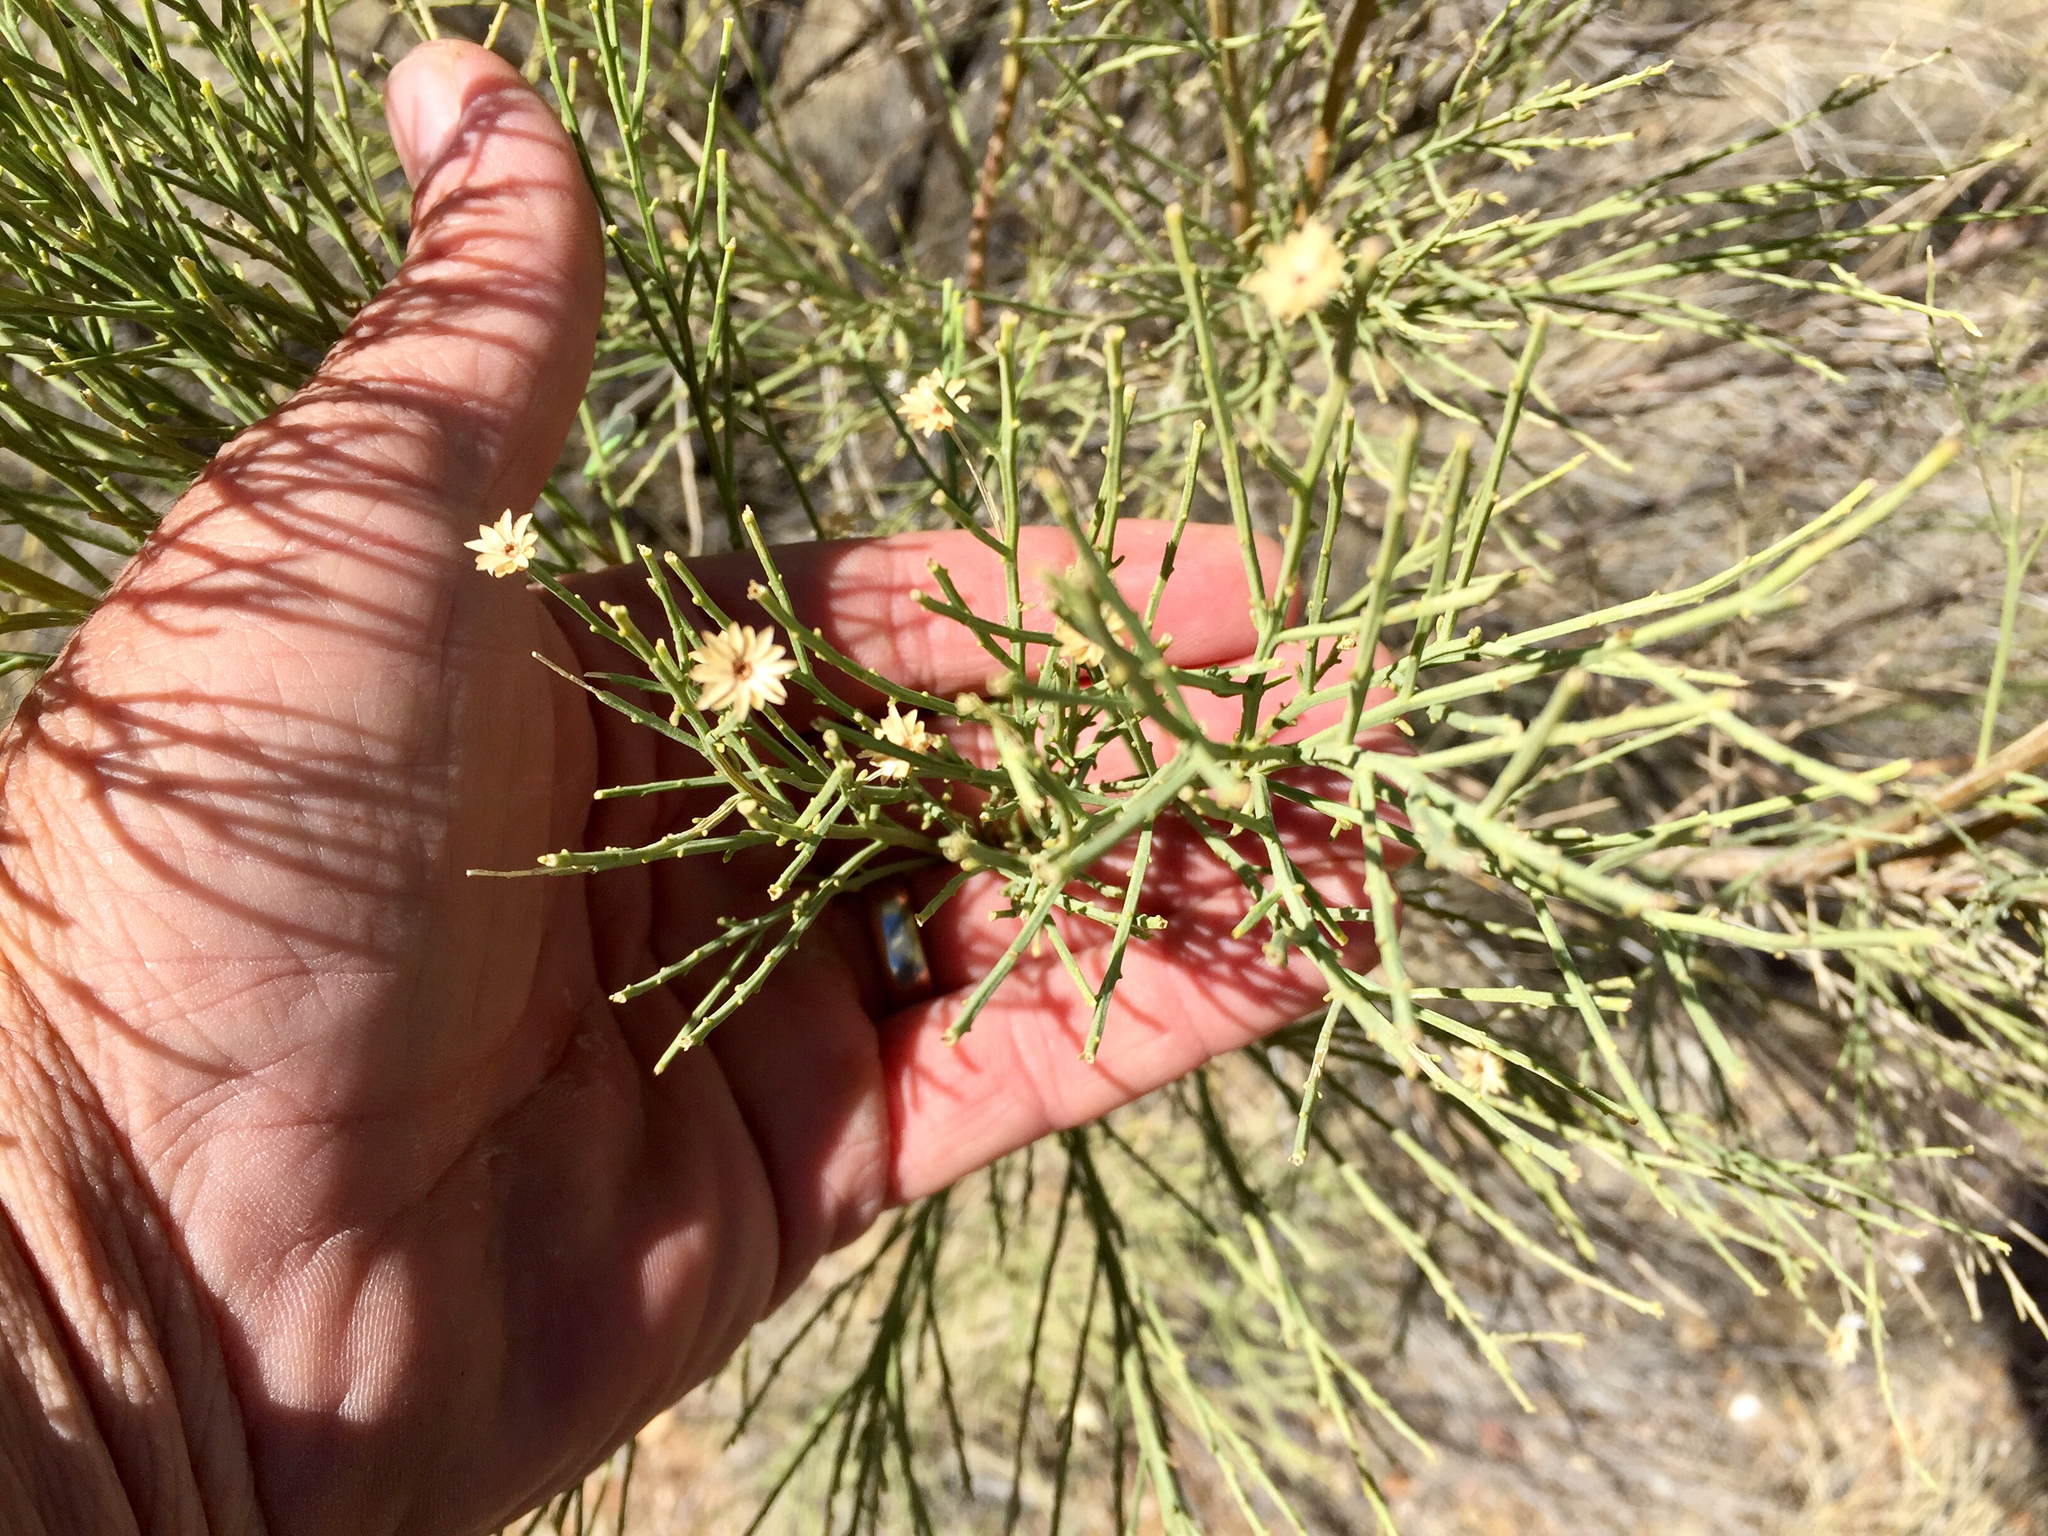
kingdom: Plantae
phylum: Tracheophyta
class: Magnoliopsida
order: Asterales
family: Asteraceae
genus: Baccharis
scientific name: Baccharis sarothroides
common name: Desert-broom
